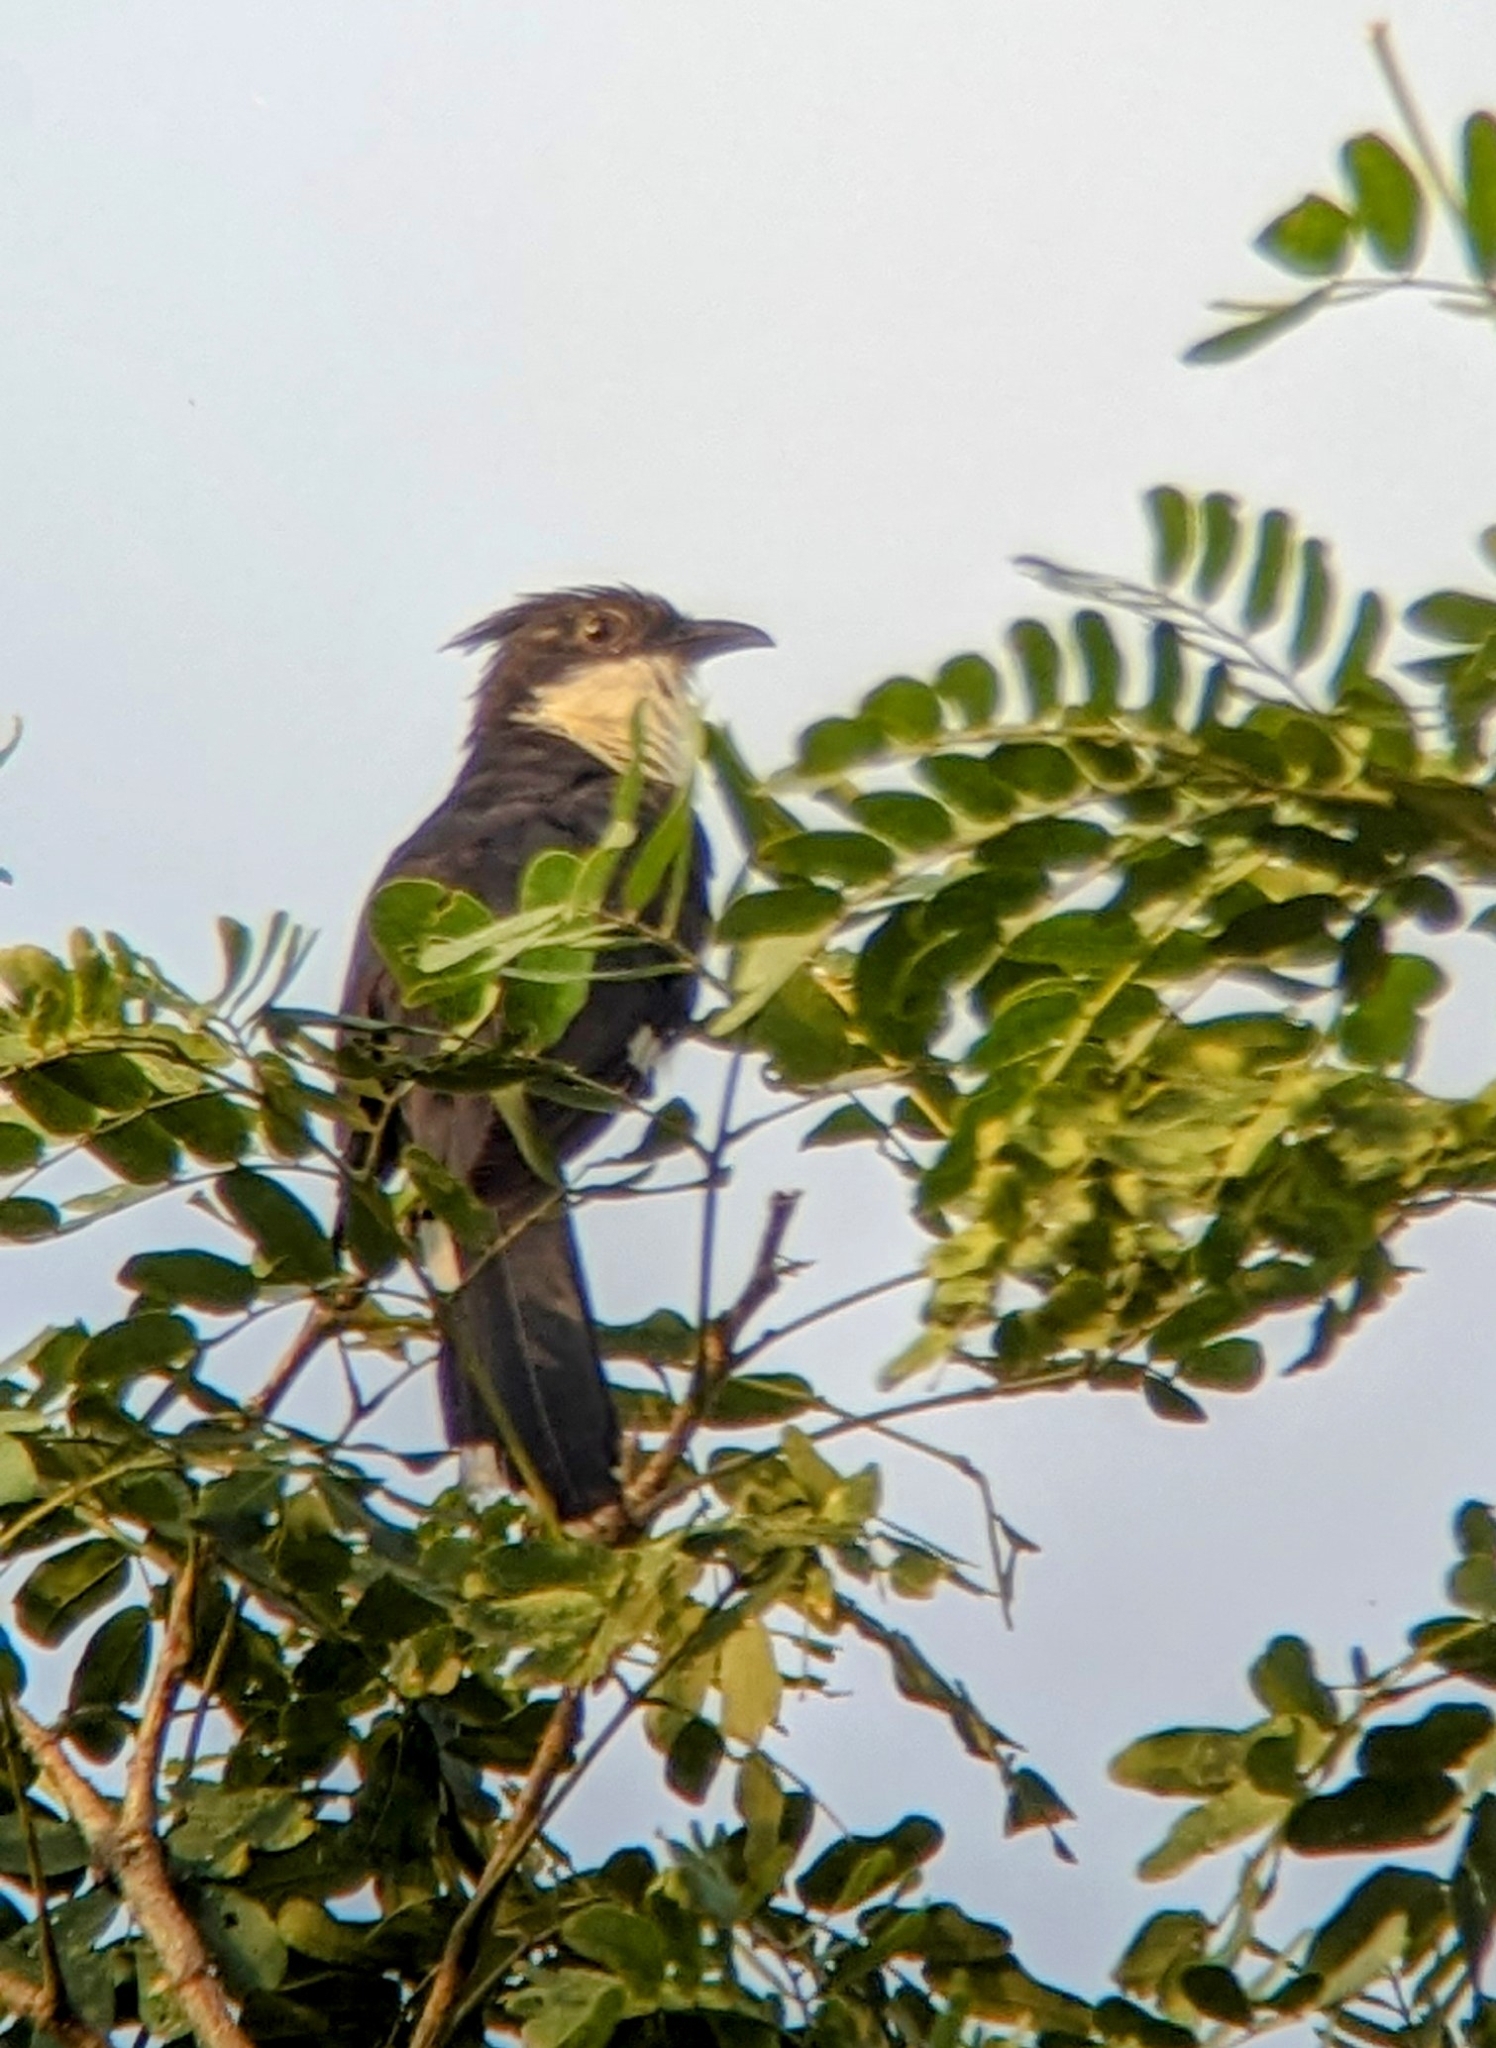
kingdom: Animalia
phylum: Chordata
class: Aves
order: Cuculiformes
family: Cuculidae
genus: Clamator
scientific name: Clamator jacobinus
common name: Jacobin cuckoo
